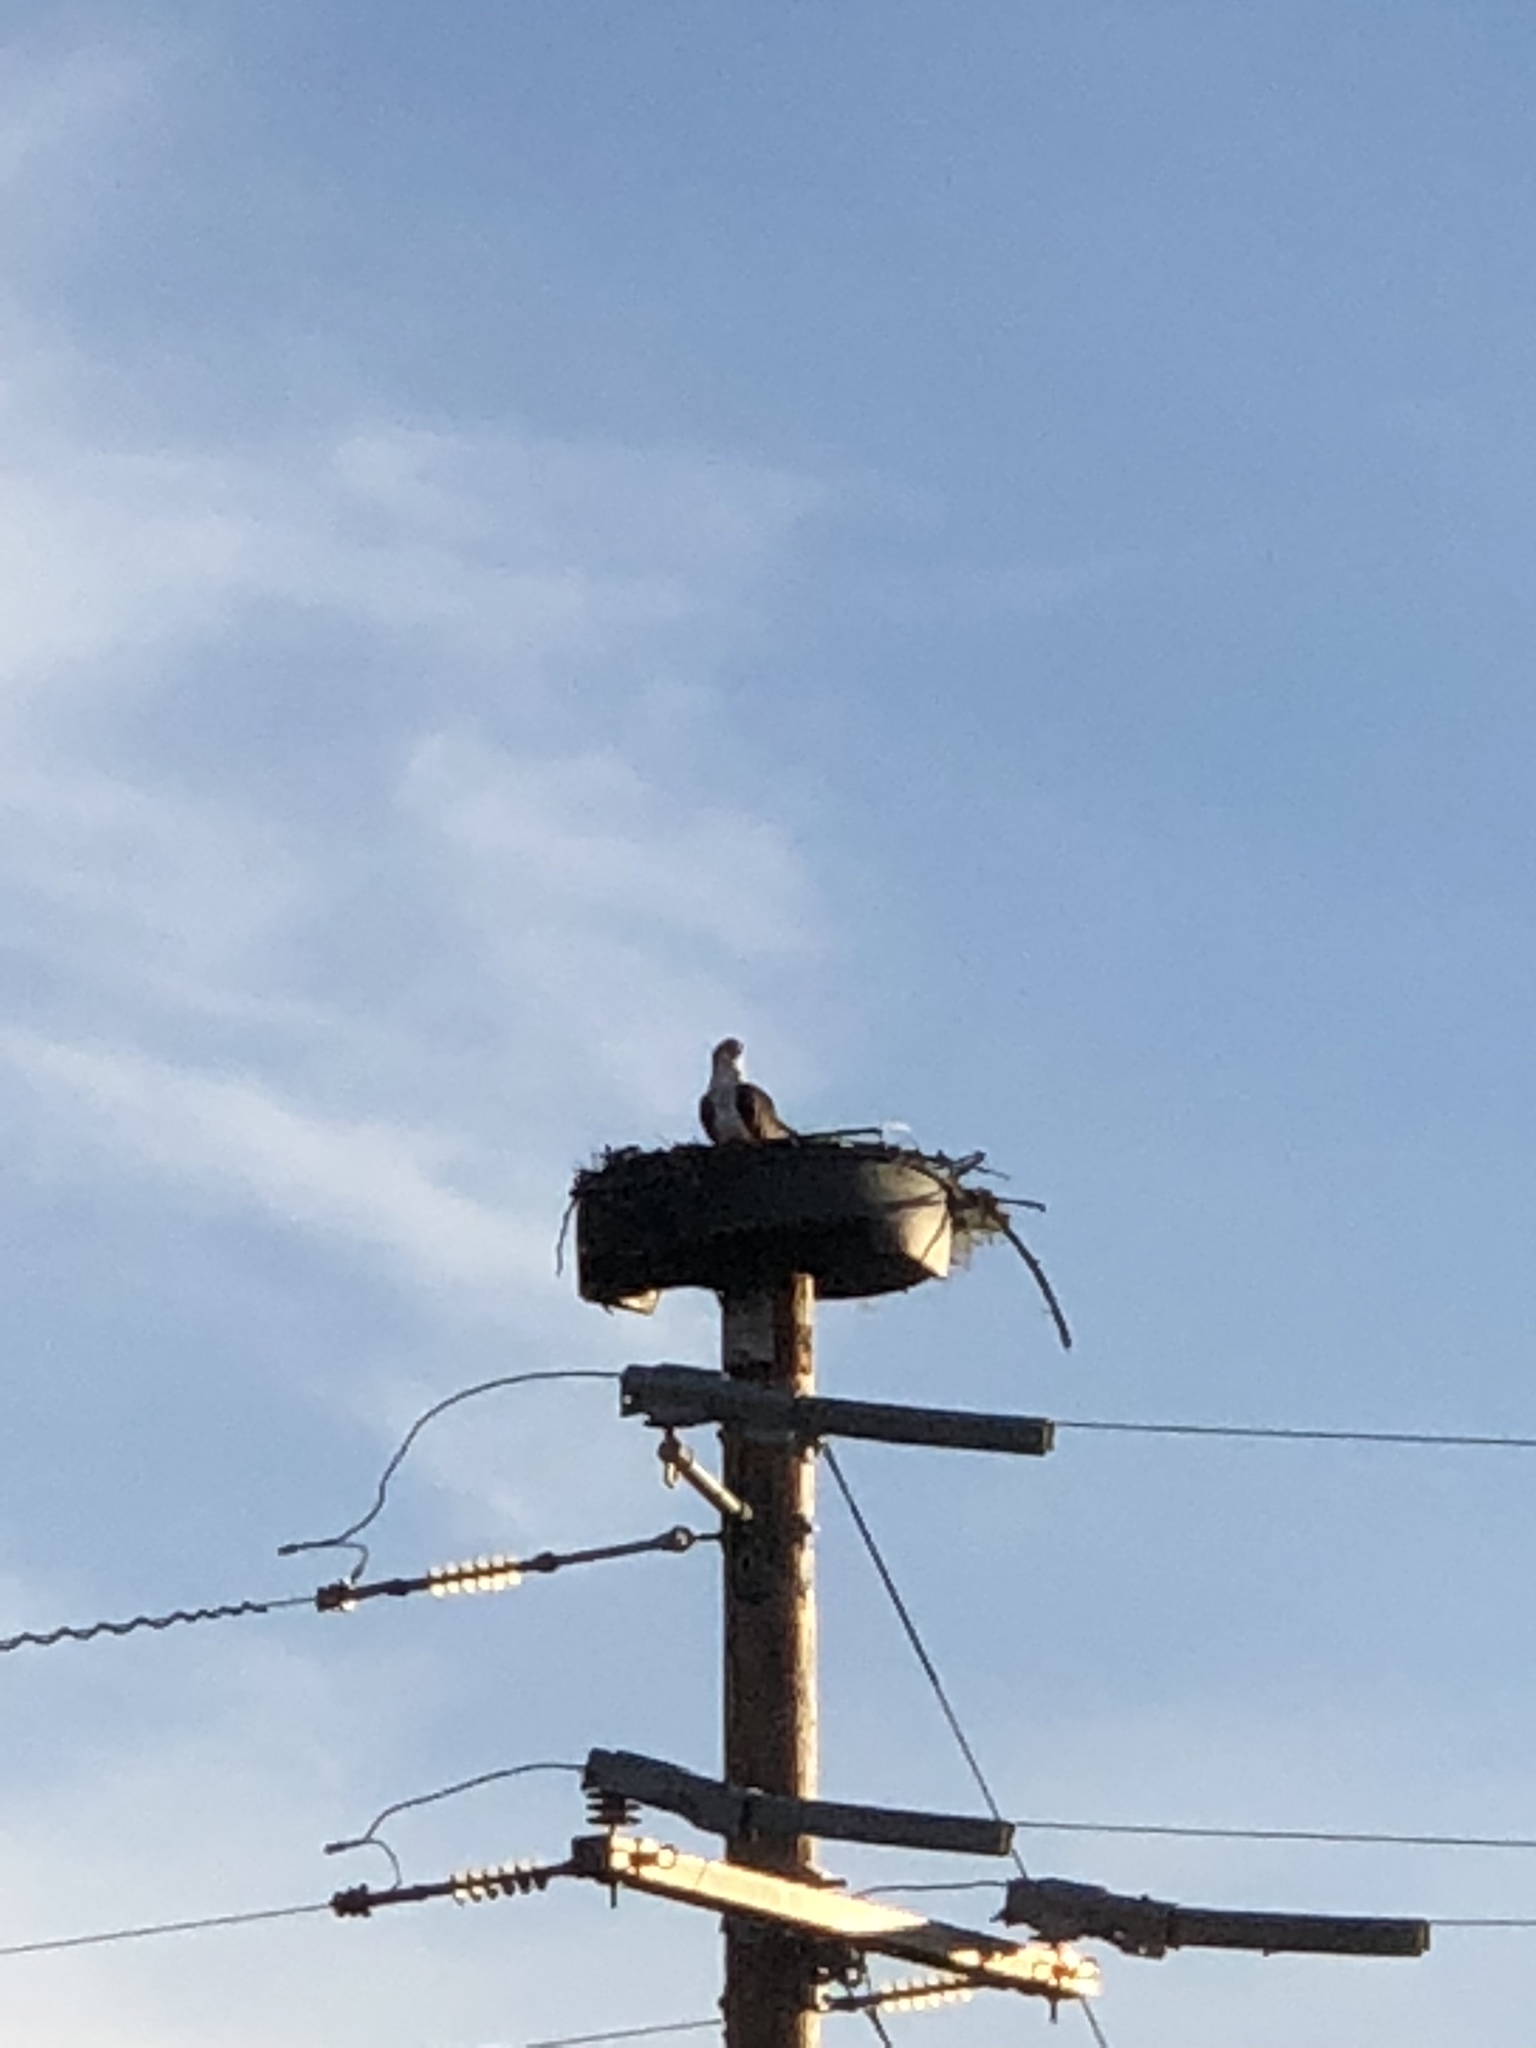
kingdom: Animalia
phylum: Chordata
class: Aves
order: Accipitriformes
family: Pandionidae
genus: Pandion
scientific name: Pandion haliaetus
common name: Osprey
